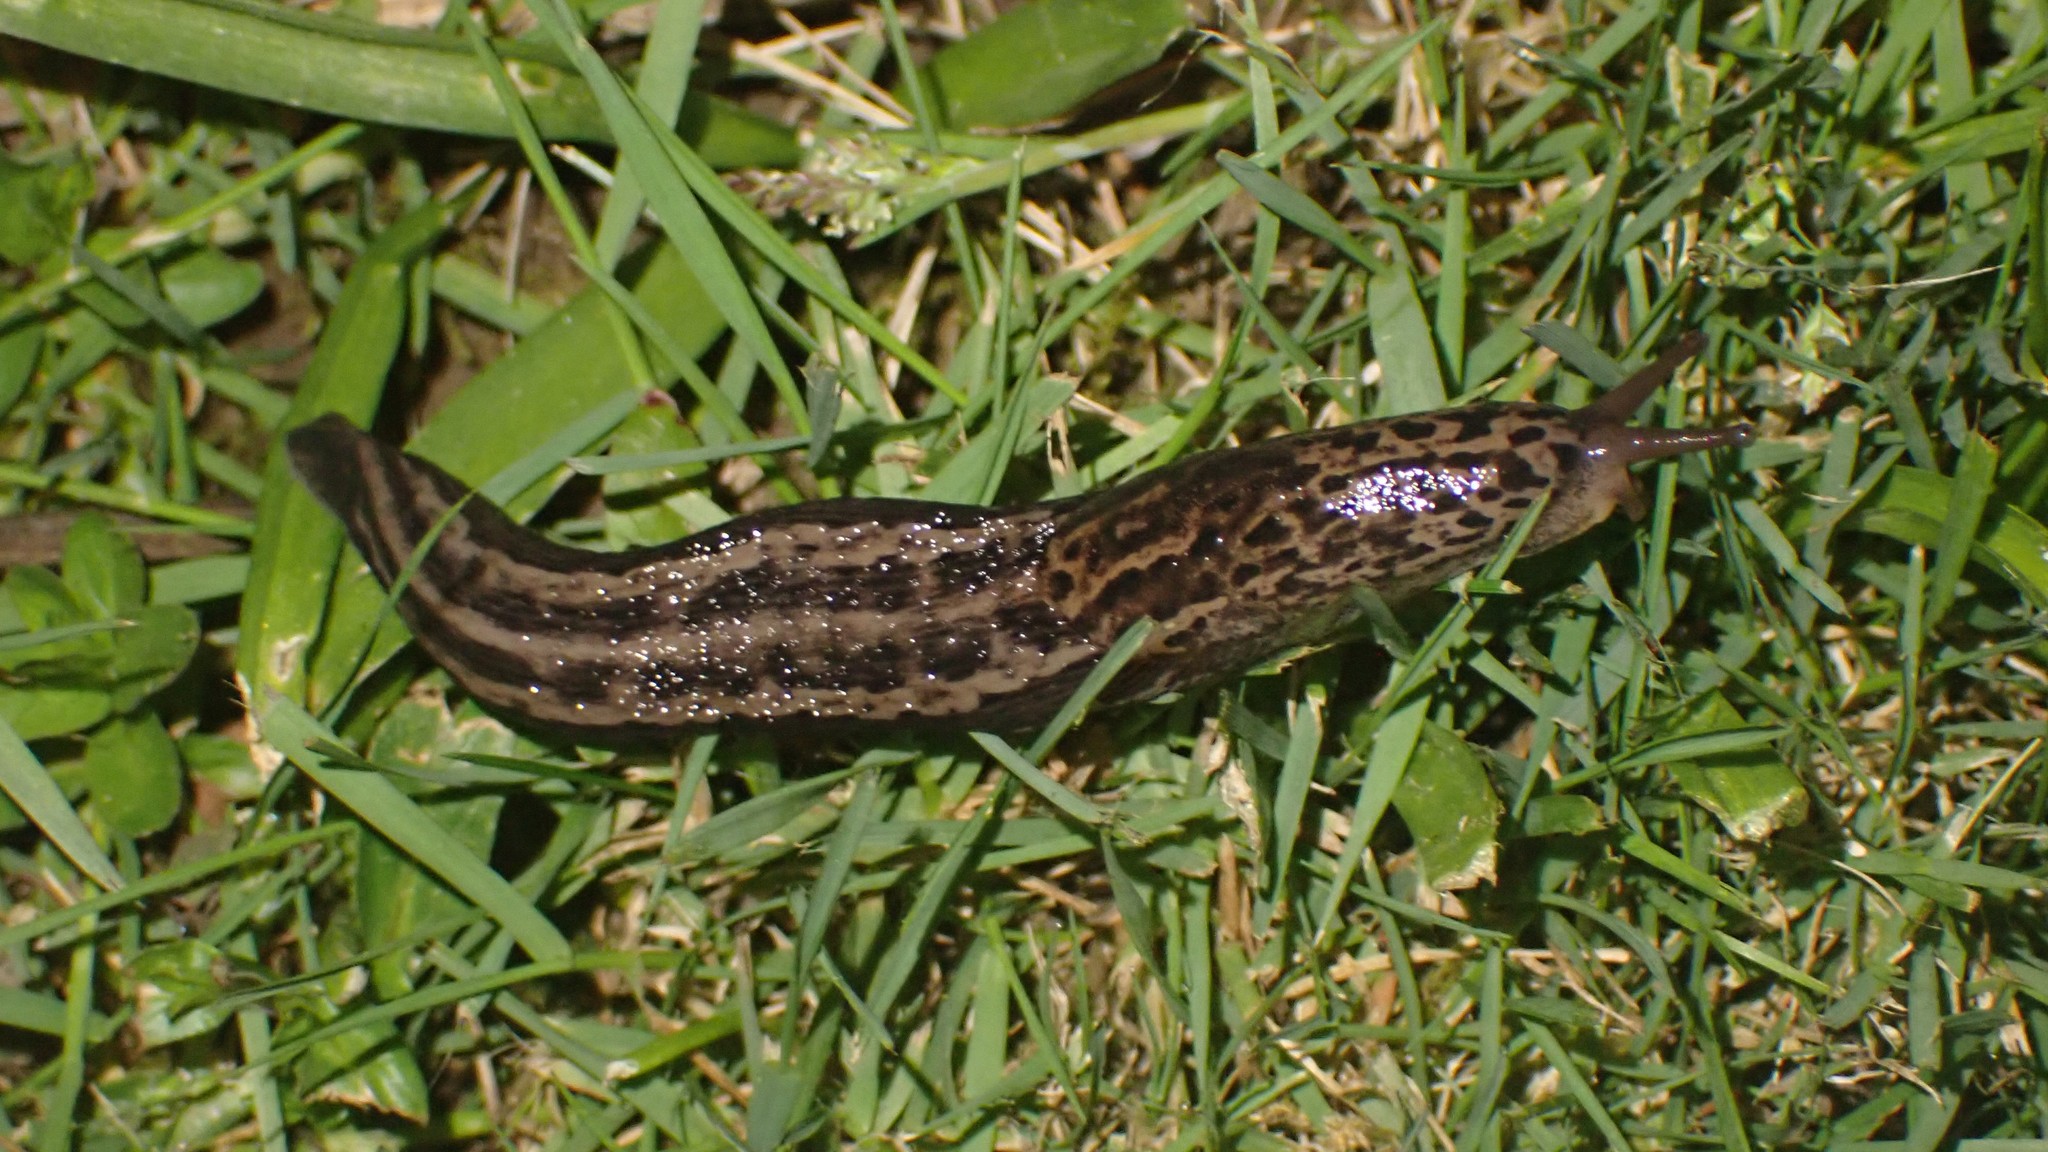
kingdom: Animalia
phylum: Mollusca
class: Gastropoda
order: Stylommatophora
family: Limacidae
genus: Limax
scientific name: Limax maximus
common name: Great grey slug
